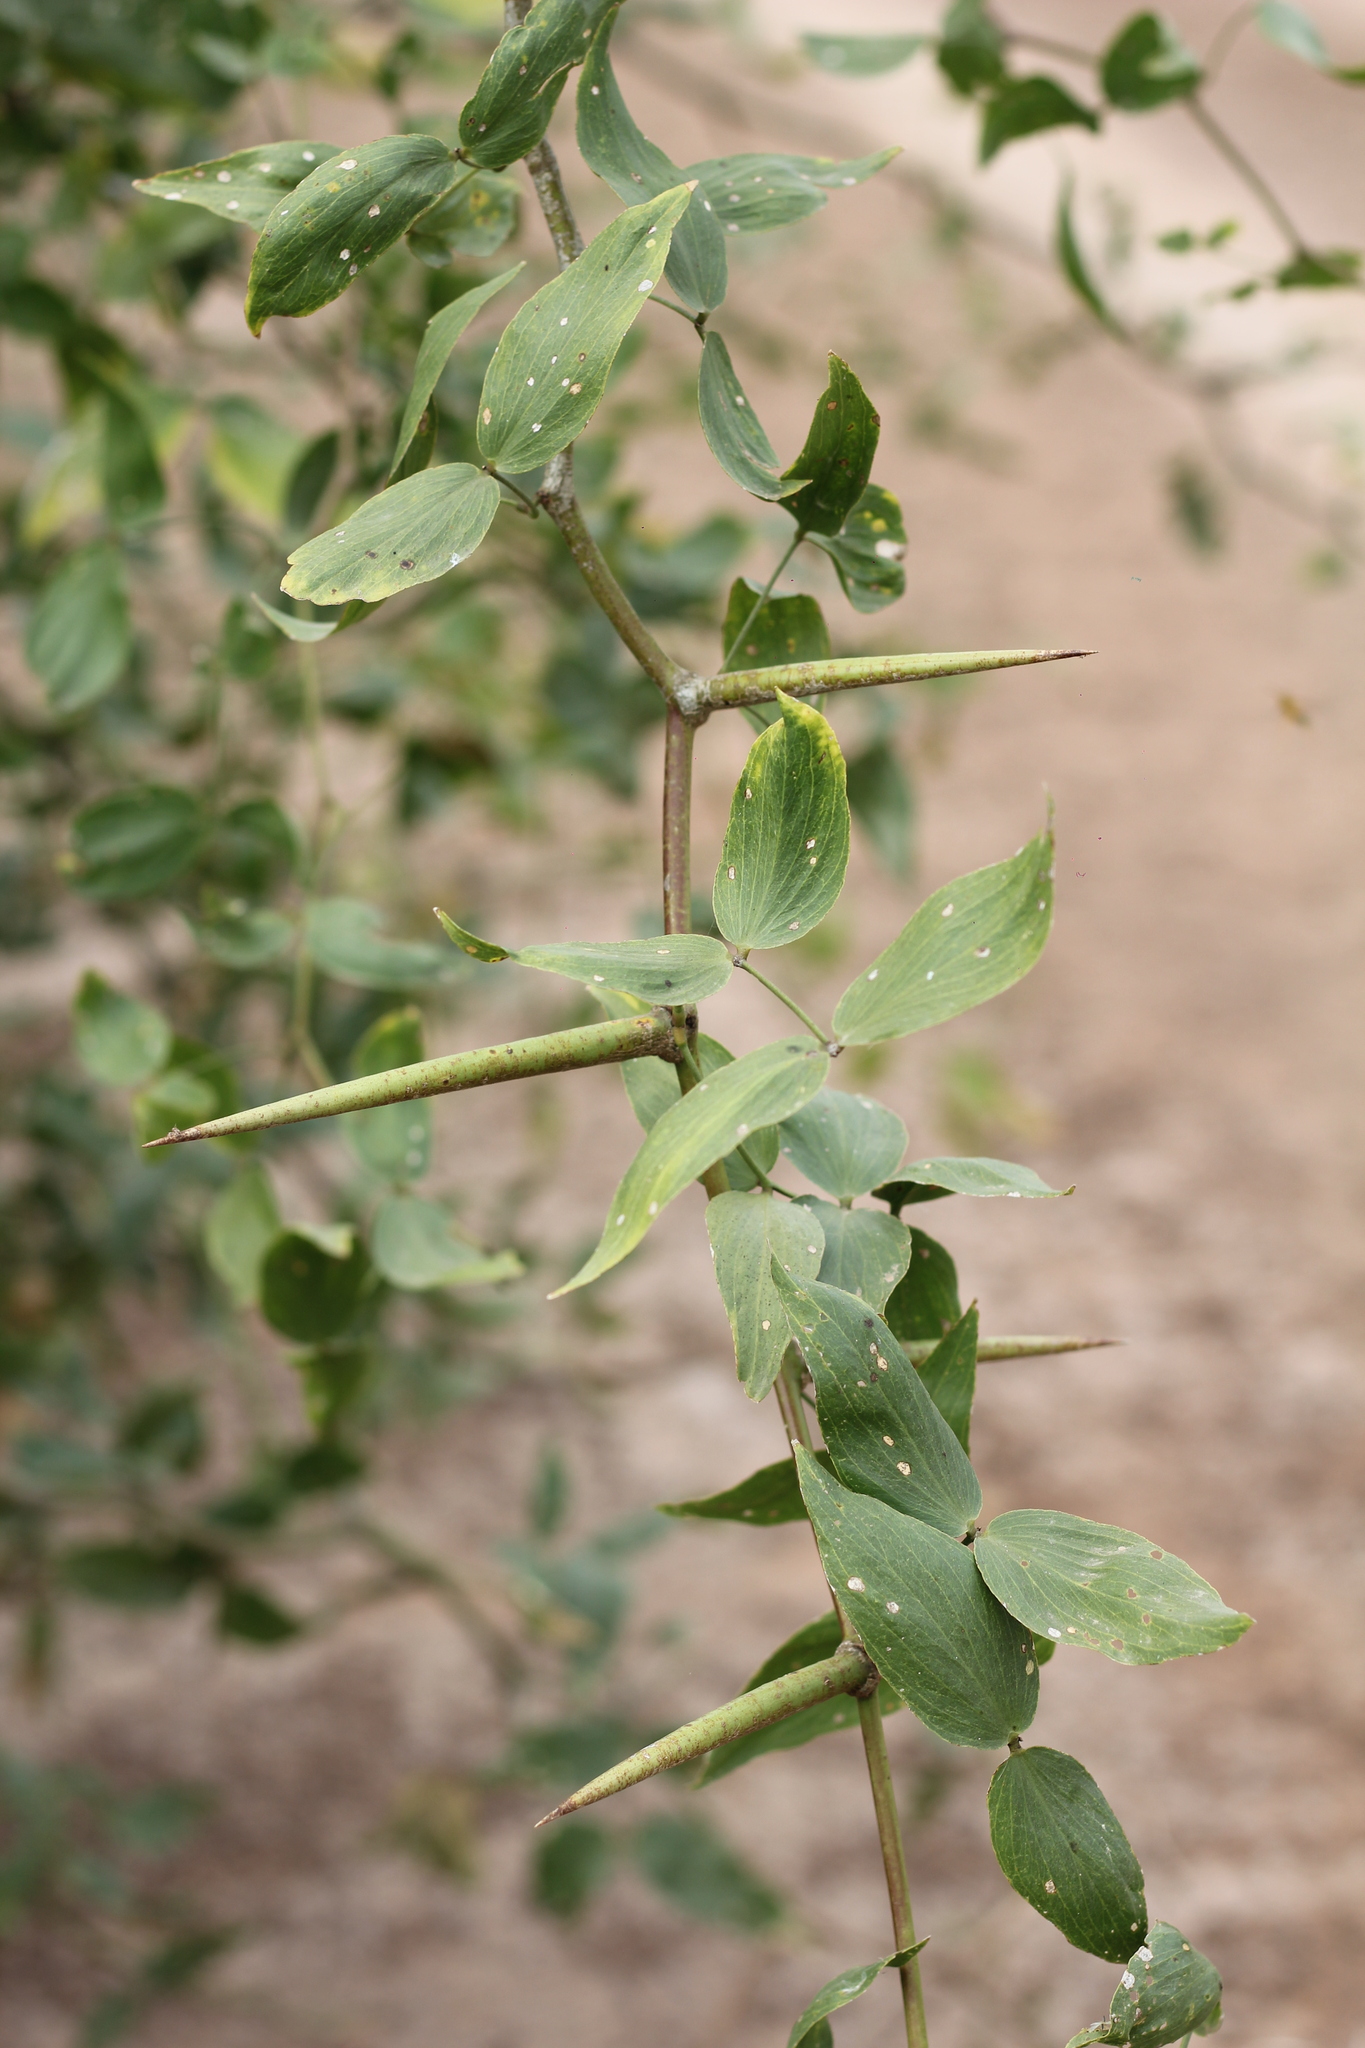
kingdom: Plantae
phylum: Tracheophyta
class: Magnoliopsida
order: Fabales
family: Fabaceae
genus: Prosopis
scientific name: Prosopis ruscifolia
